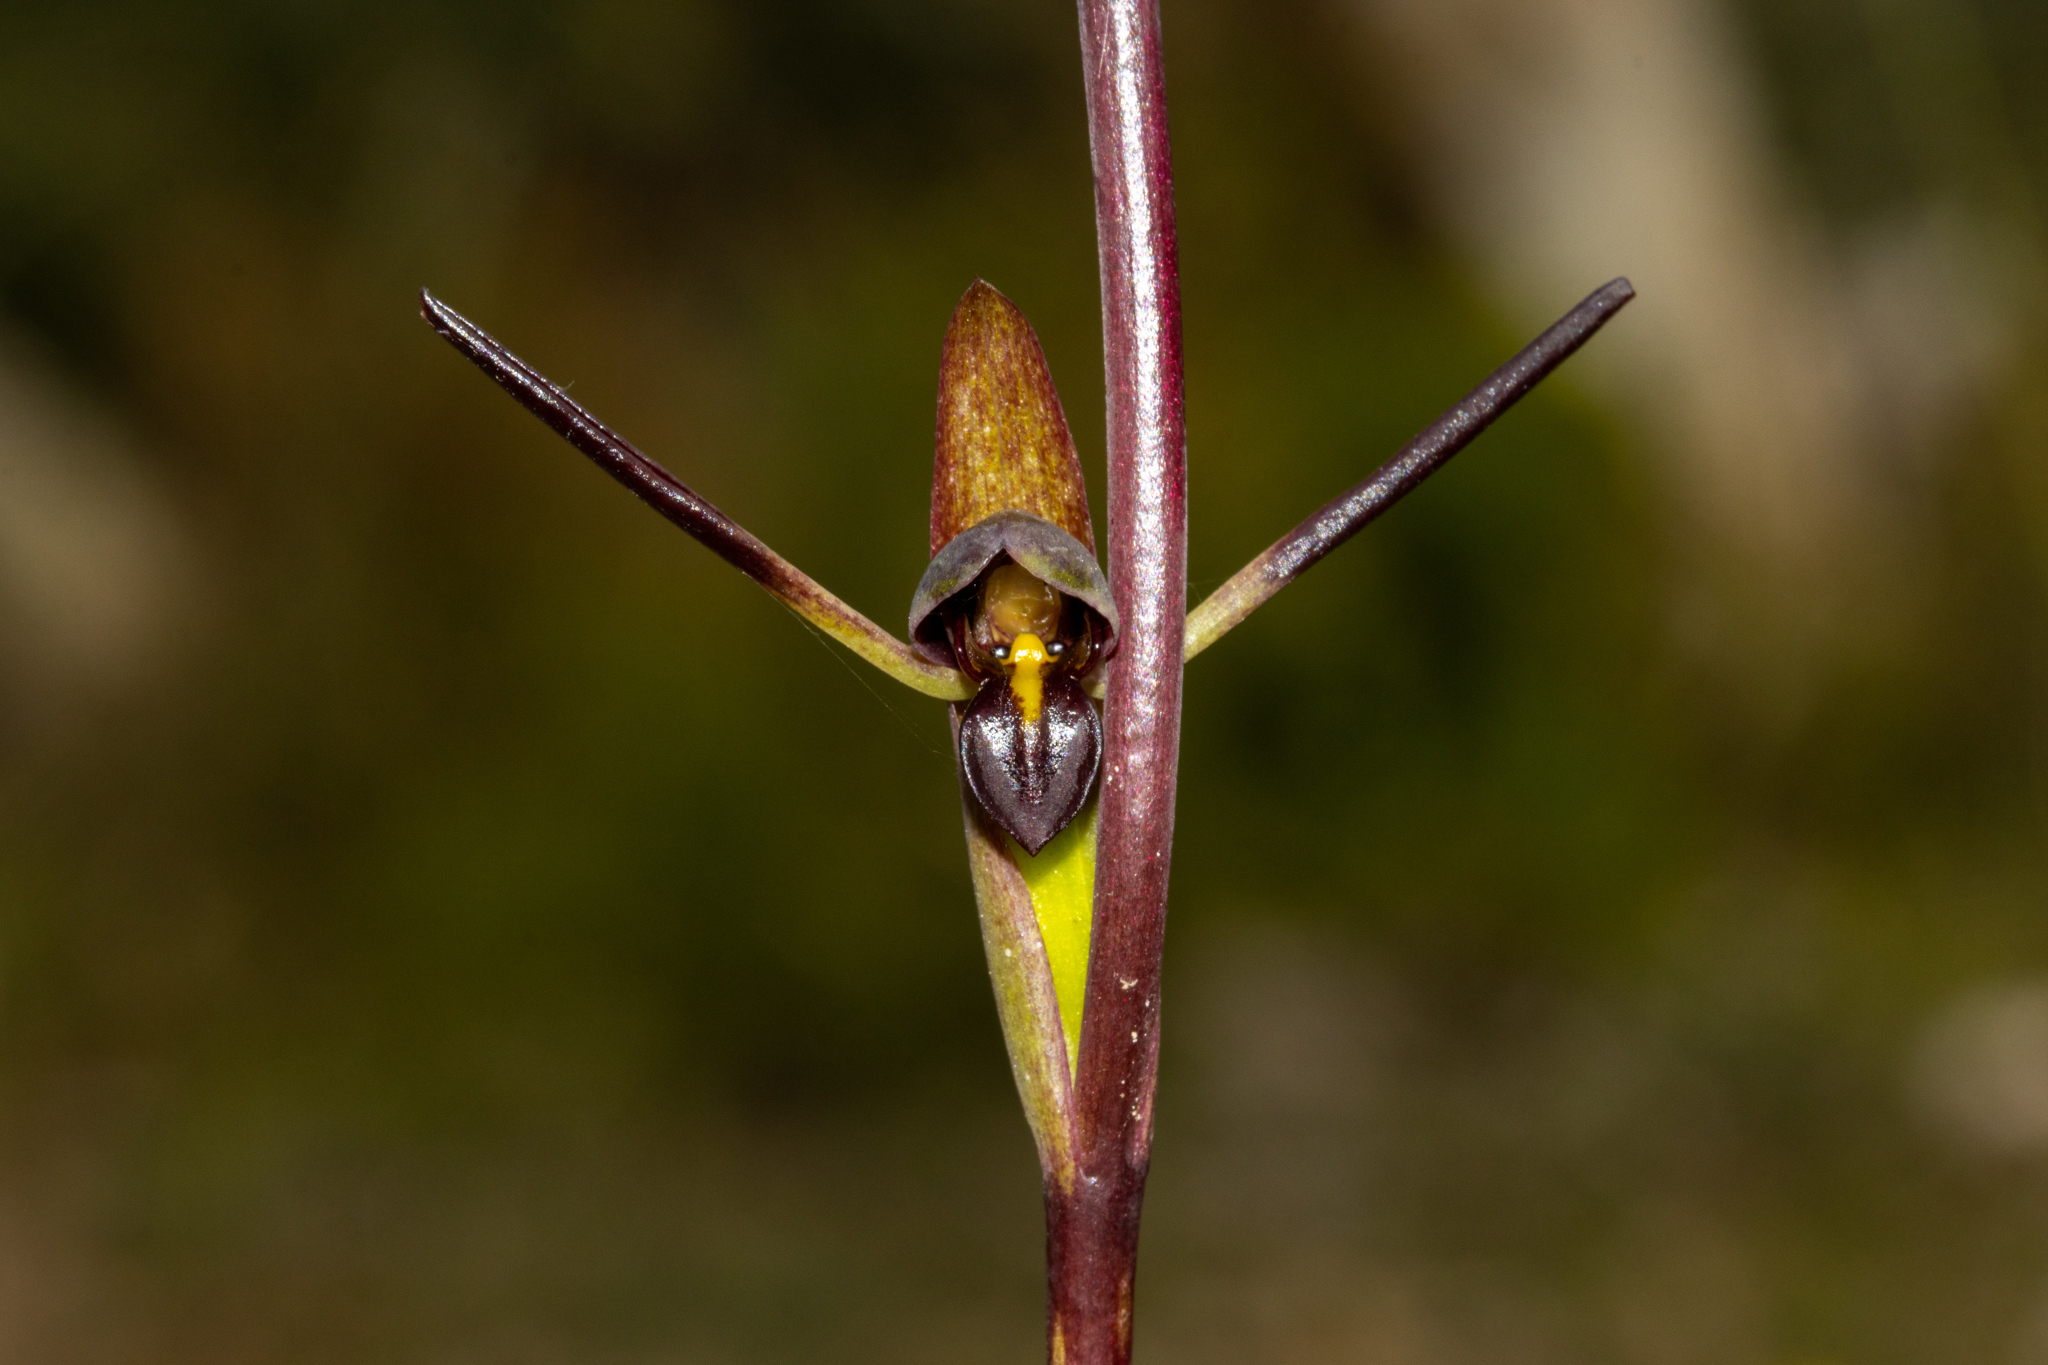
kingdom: Plantae
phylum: Tracheophyta
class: Liliopsida
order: Asparagales
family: Orchidaceae
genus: Orthoceras
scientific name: Orthoceras strictum
